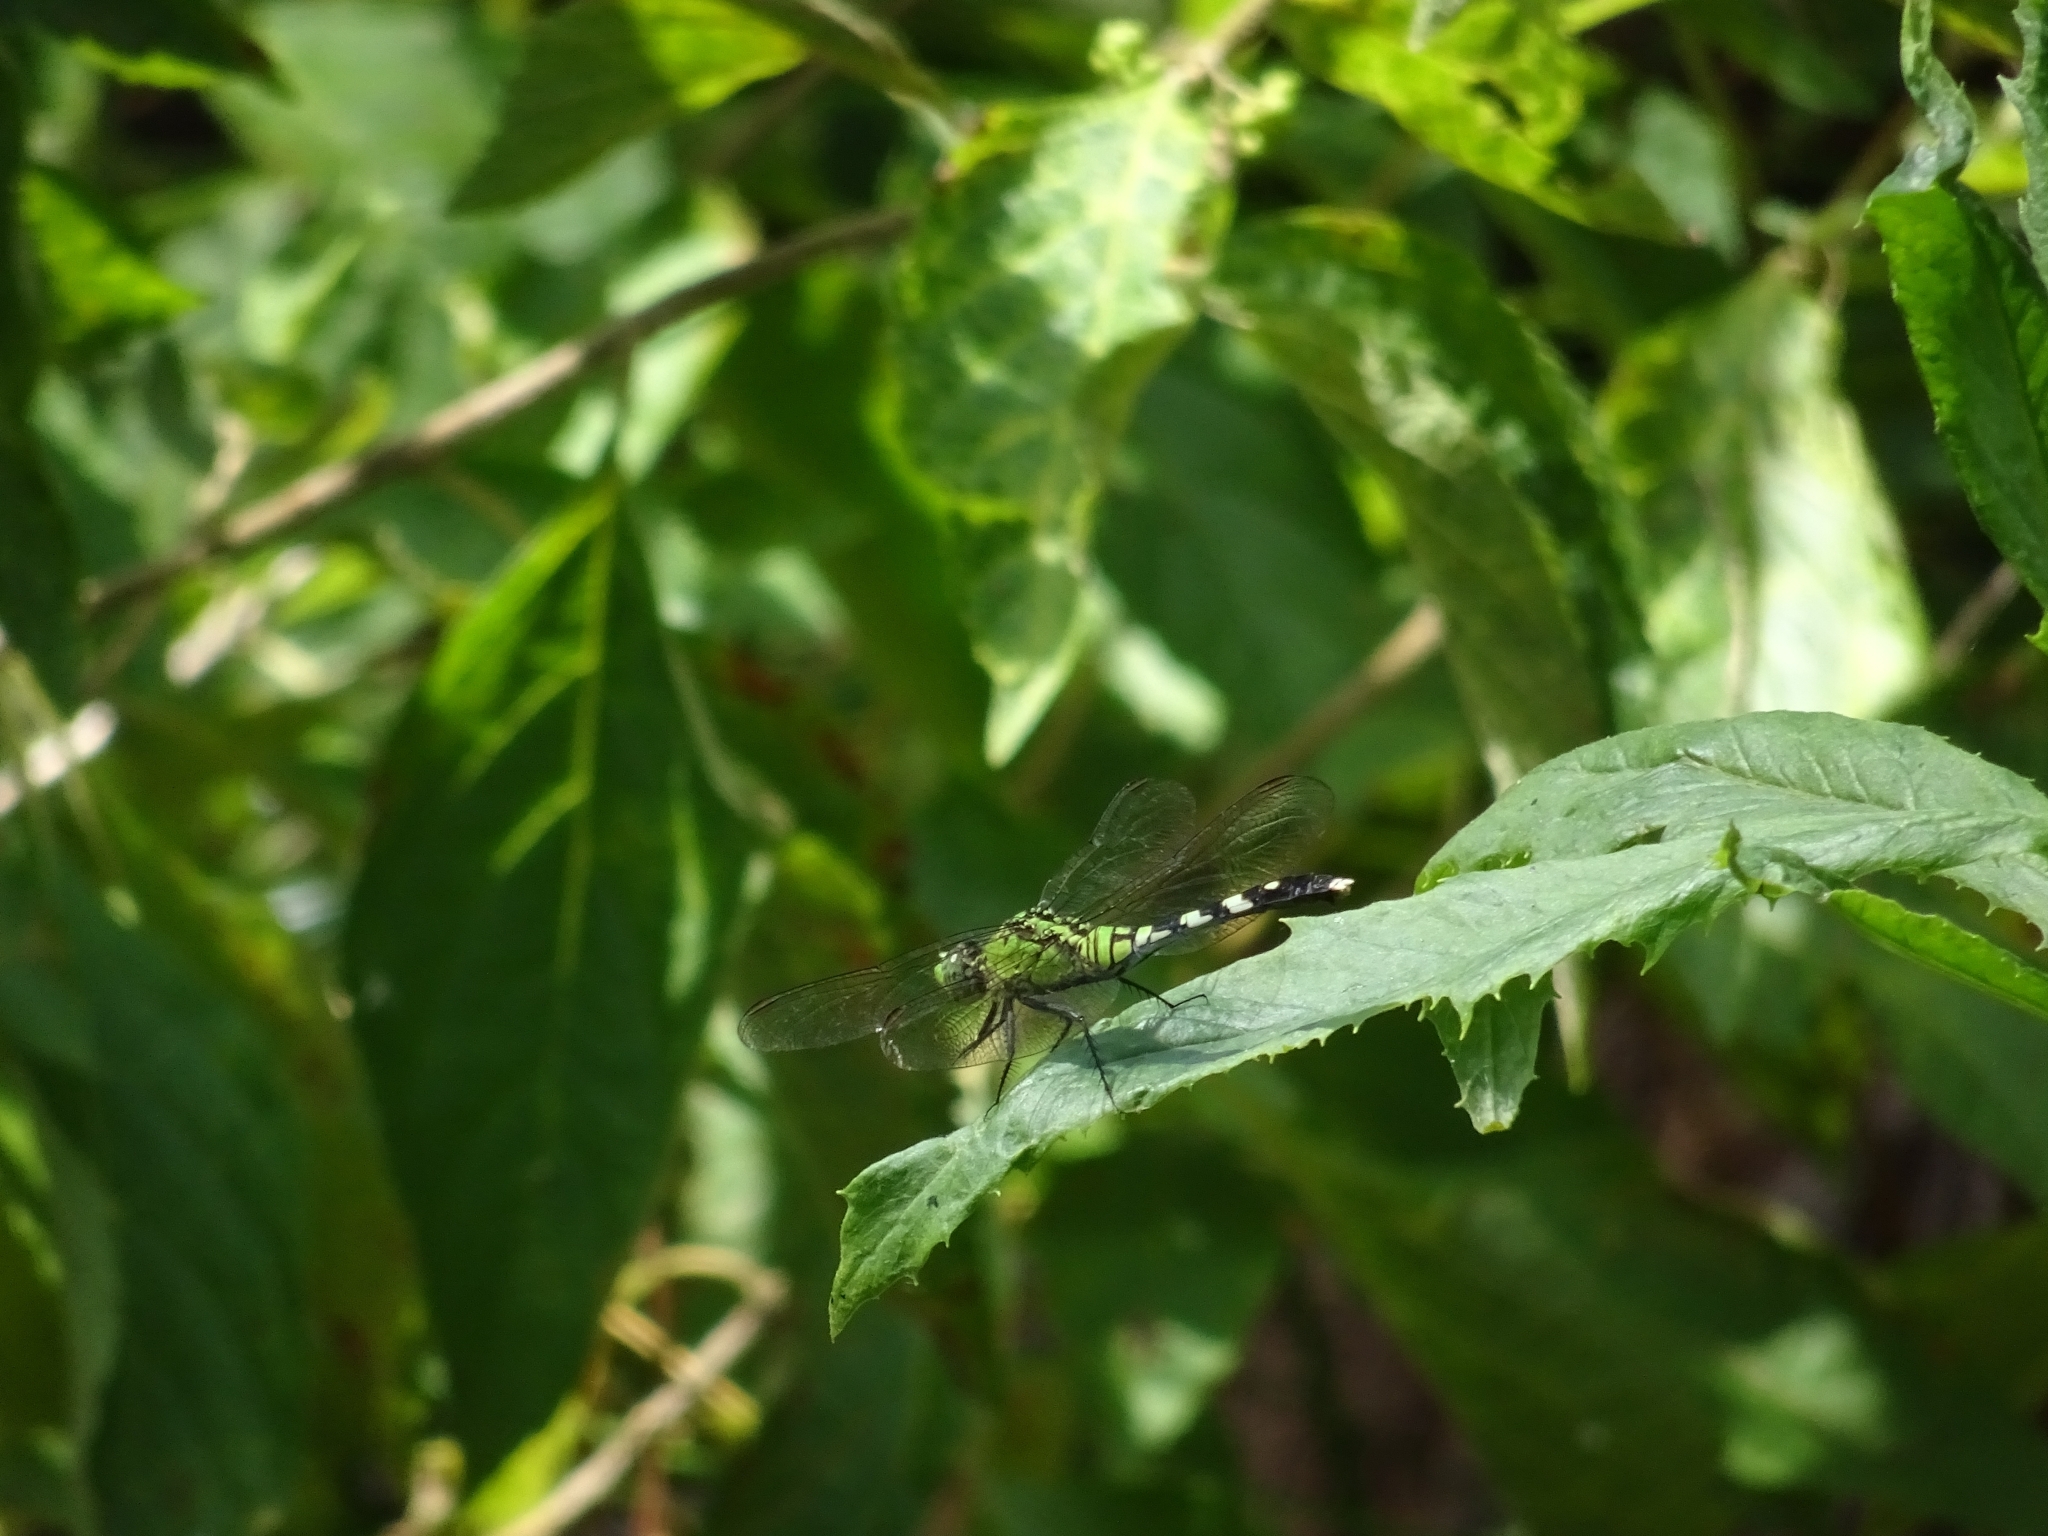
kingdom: Animalia
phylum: Arthropoda
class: Insecta
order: Odonata
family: Libellulidae
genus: Erythemis
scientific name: Erythemis simplicicollis
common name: Eastern pondhawk
